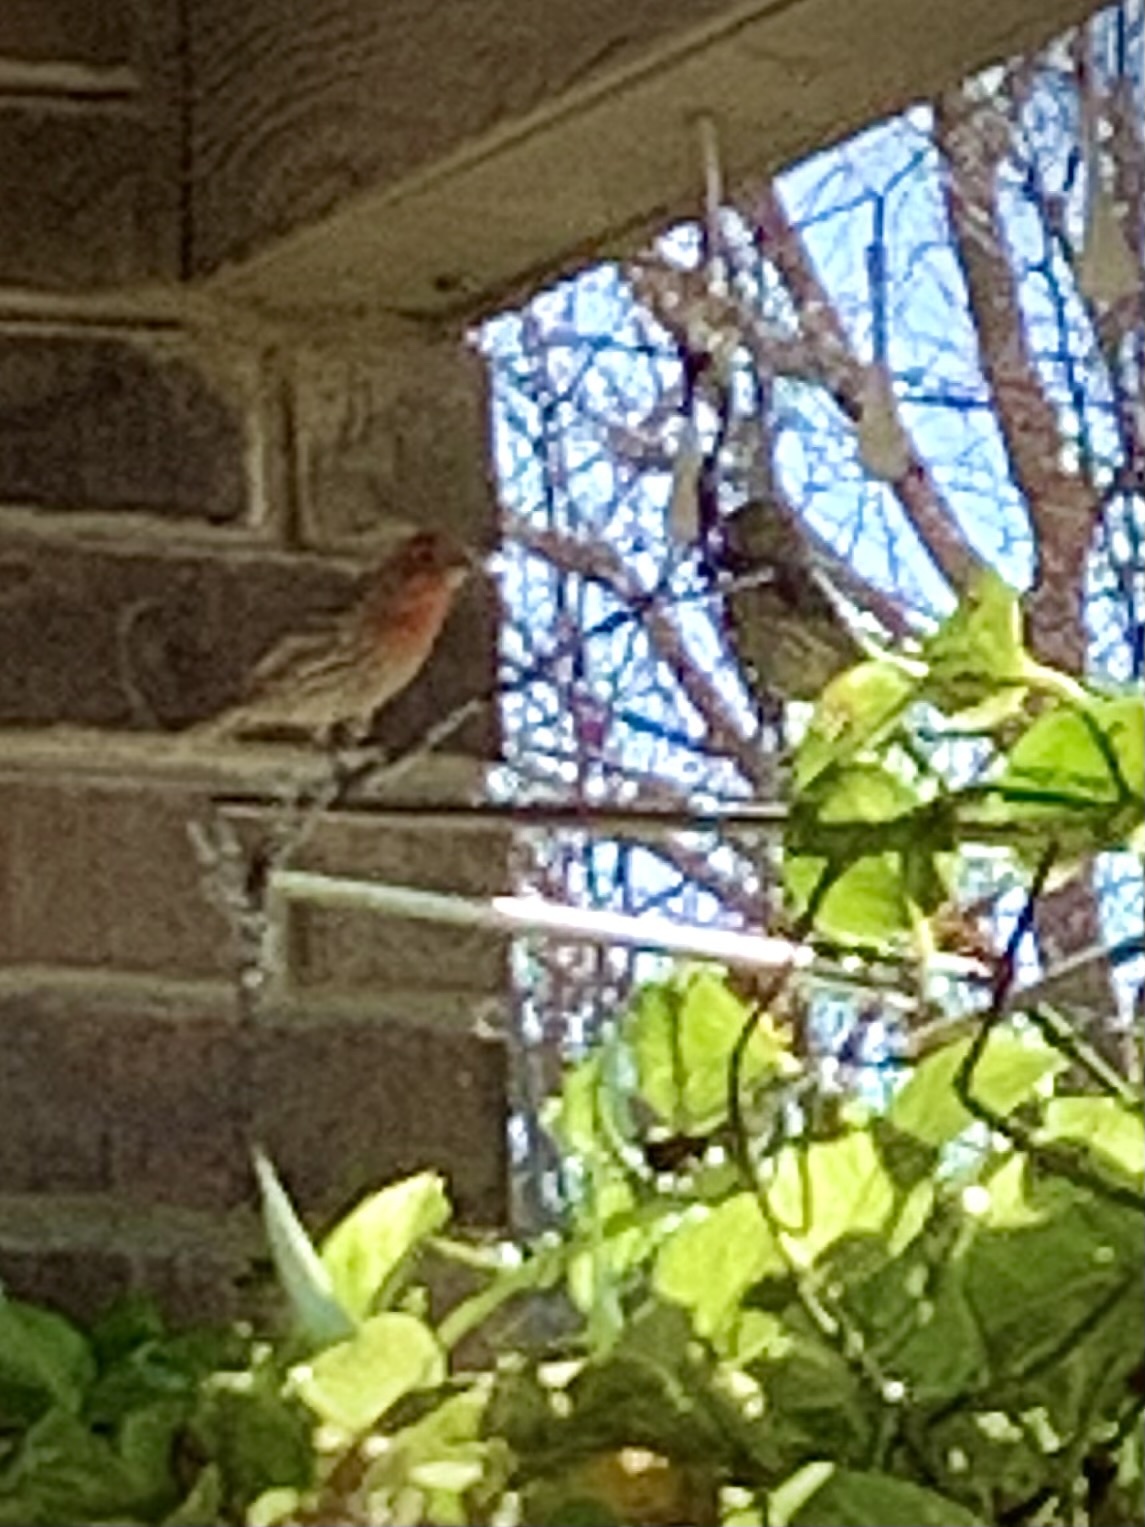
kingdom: Animalia
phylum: Chordata
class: Aves
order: Passeriformes
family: Fringillidae
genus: Haemorhous
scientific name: Haemorhous mexicanus
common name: House finch
